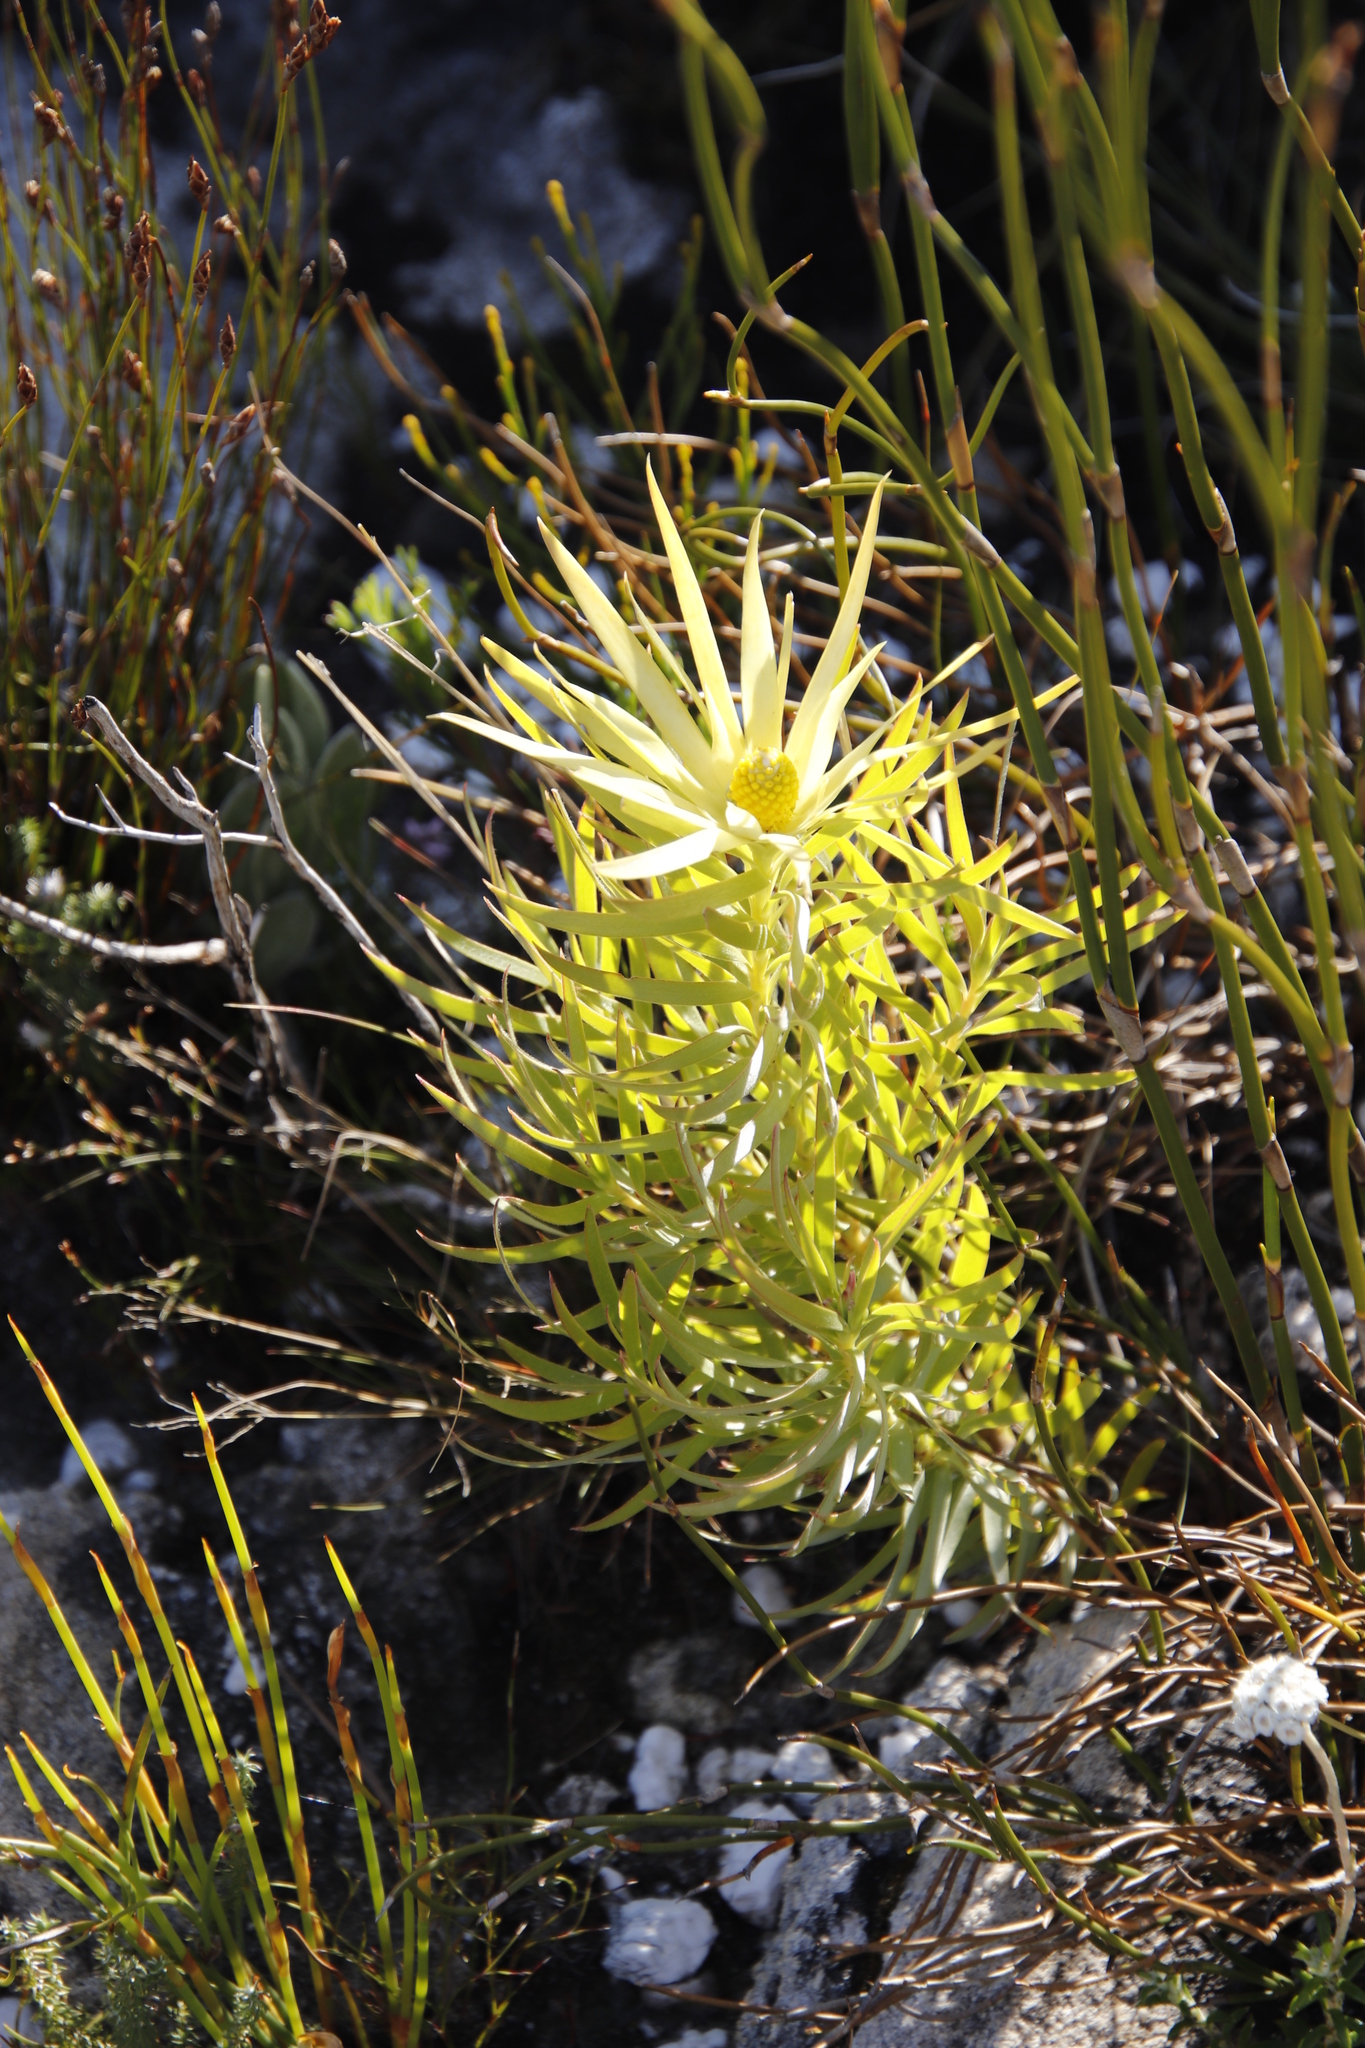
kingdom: Plantae
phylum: Tracheophyta
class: Magnoliopsida
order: Proteales
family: Proteaceae
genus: Leucadendron
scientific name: Leucadendron xanthoconus
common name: Sickle-leaf conebush
